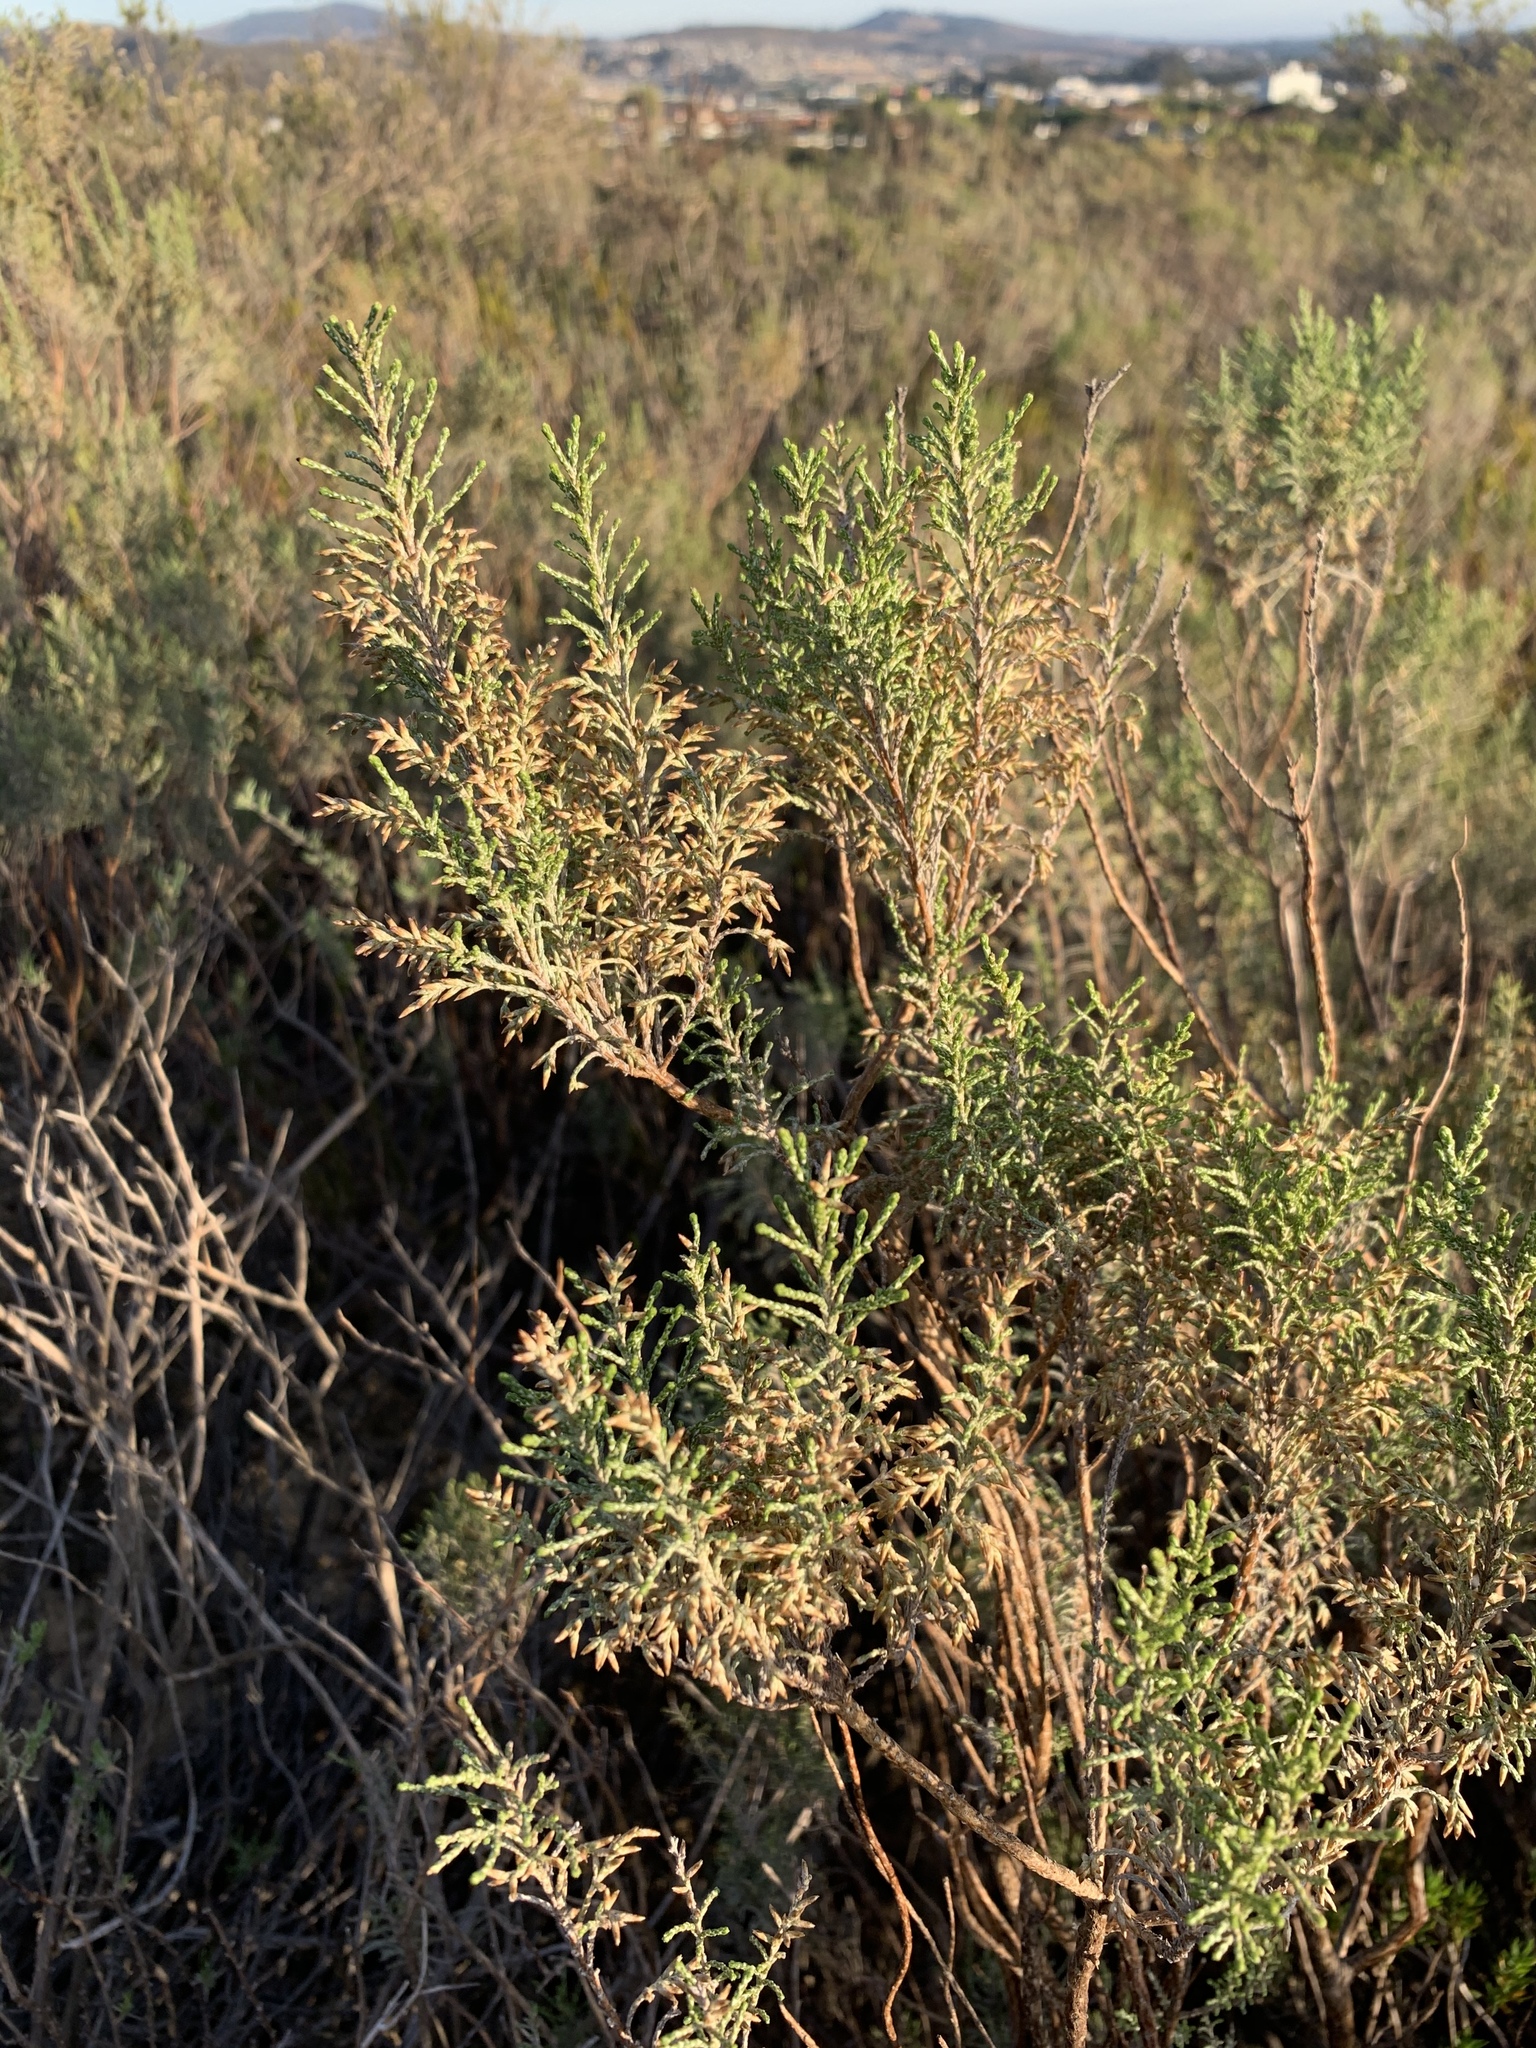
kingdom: Plantae
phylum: Tracheophyta
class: Magnoliopsida
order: Asterales
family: Asteraceae
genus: Dicerothamnus
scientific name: Dicerothamnus rhinocerotis
